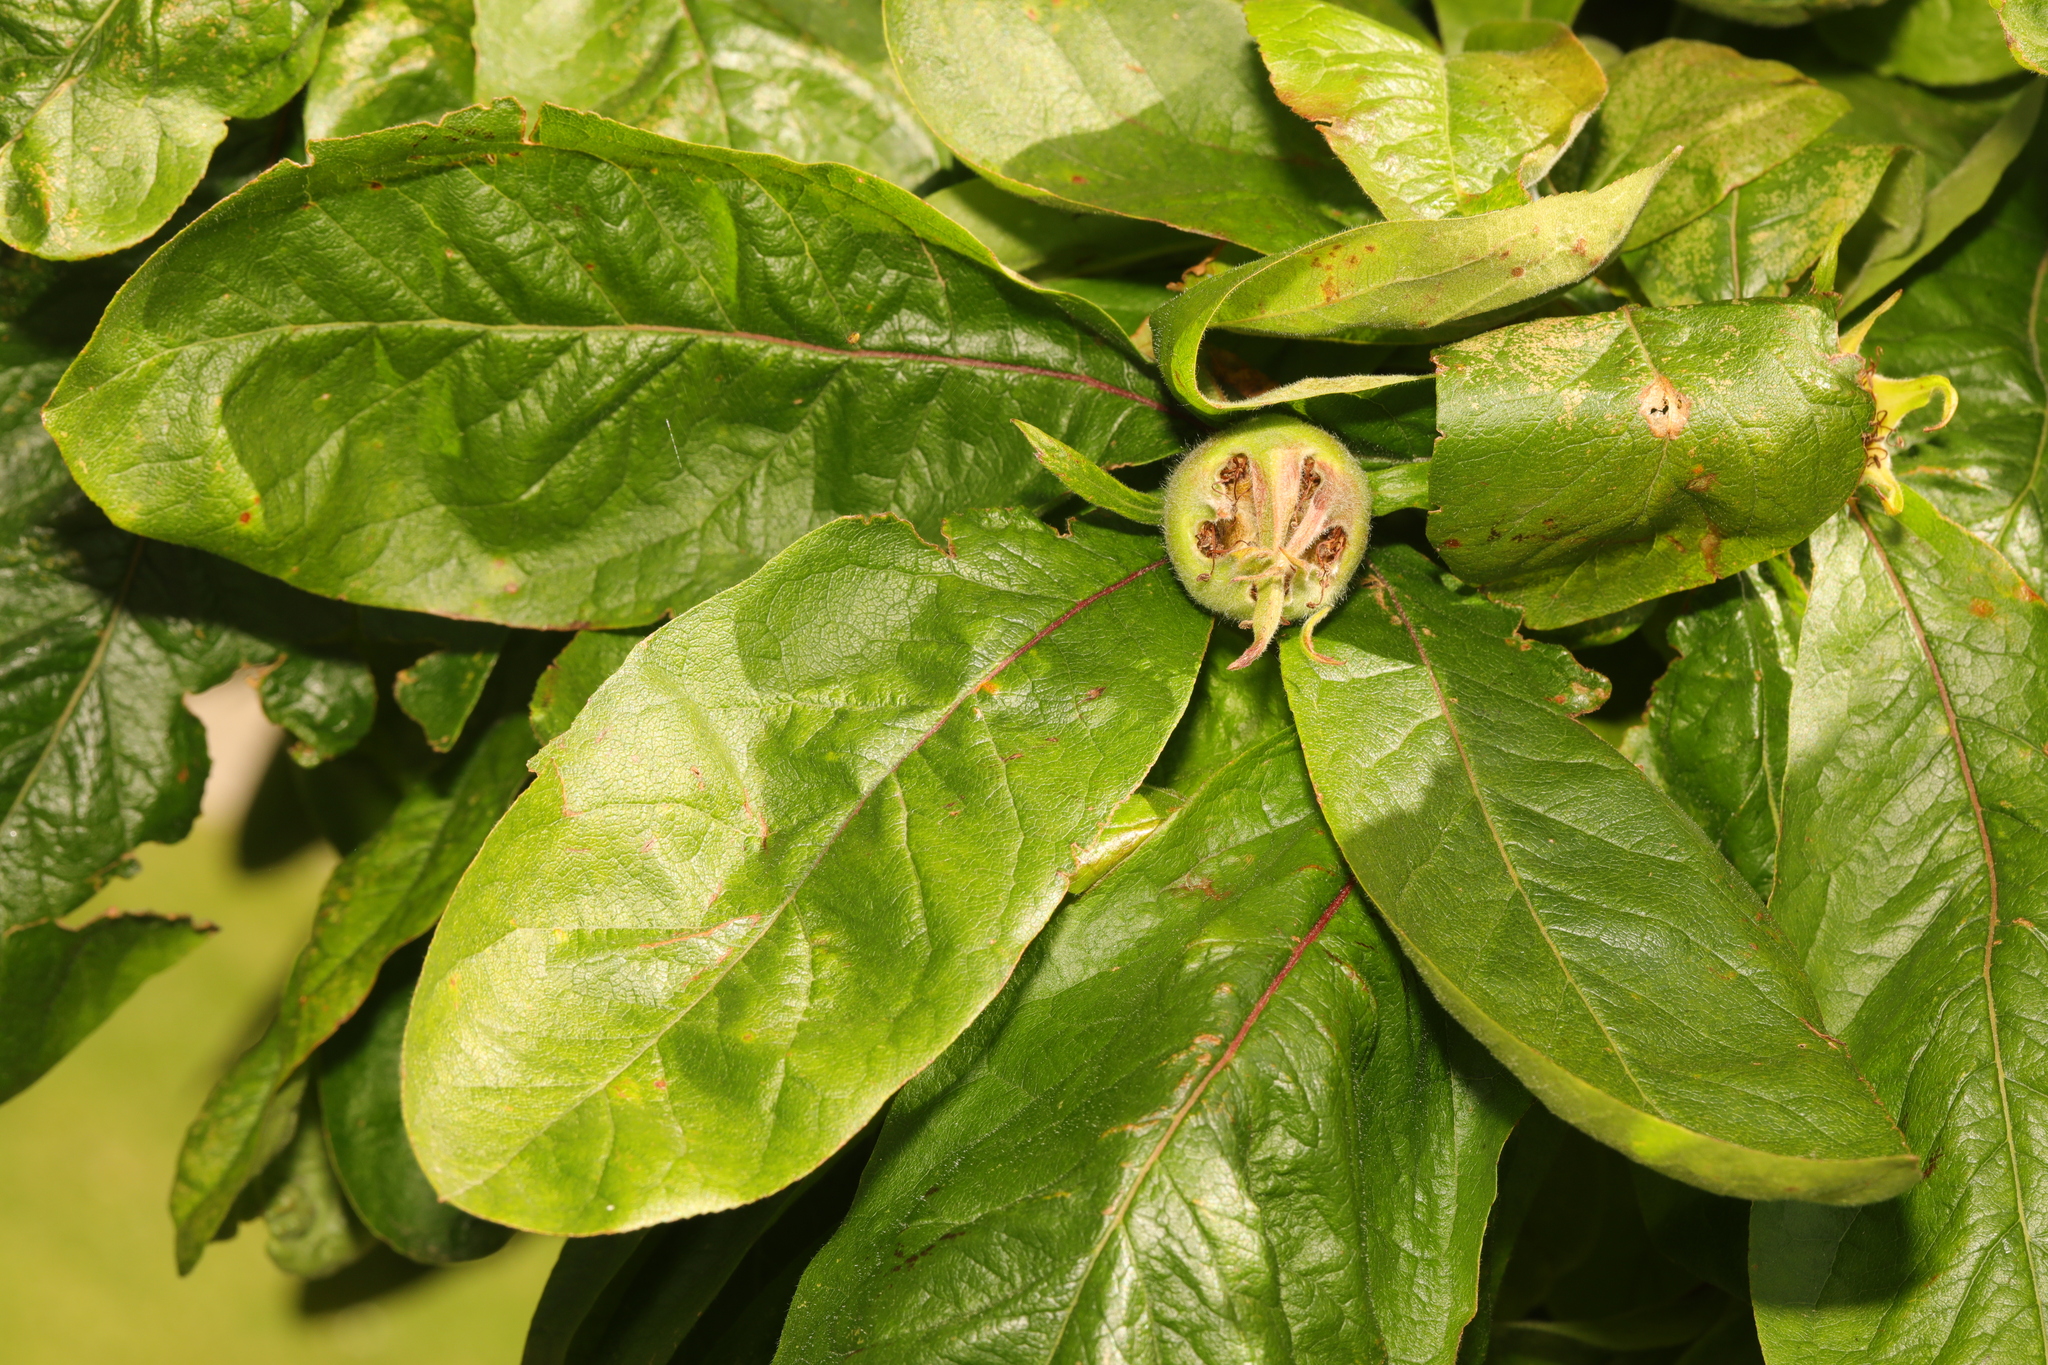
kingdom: Plantae
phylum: Tracheophyta
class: Magnoliopsida
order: Rosales
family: Rosaceae
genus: Mespilus
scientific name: Mespilus germanica
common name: Medlar
